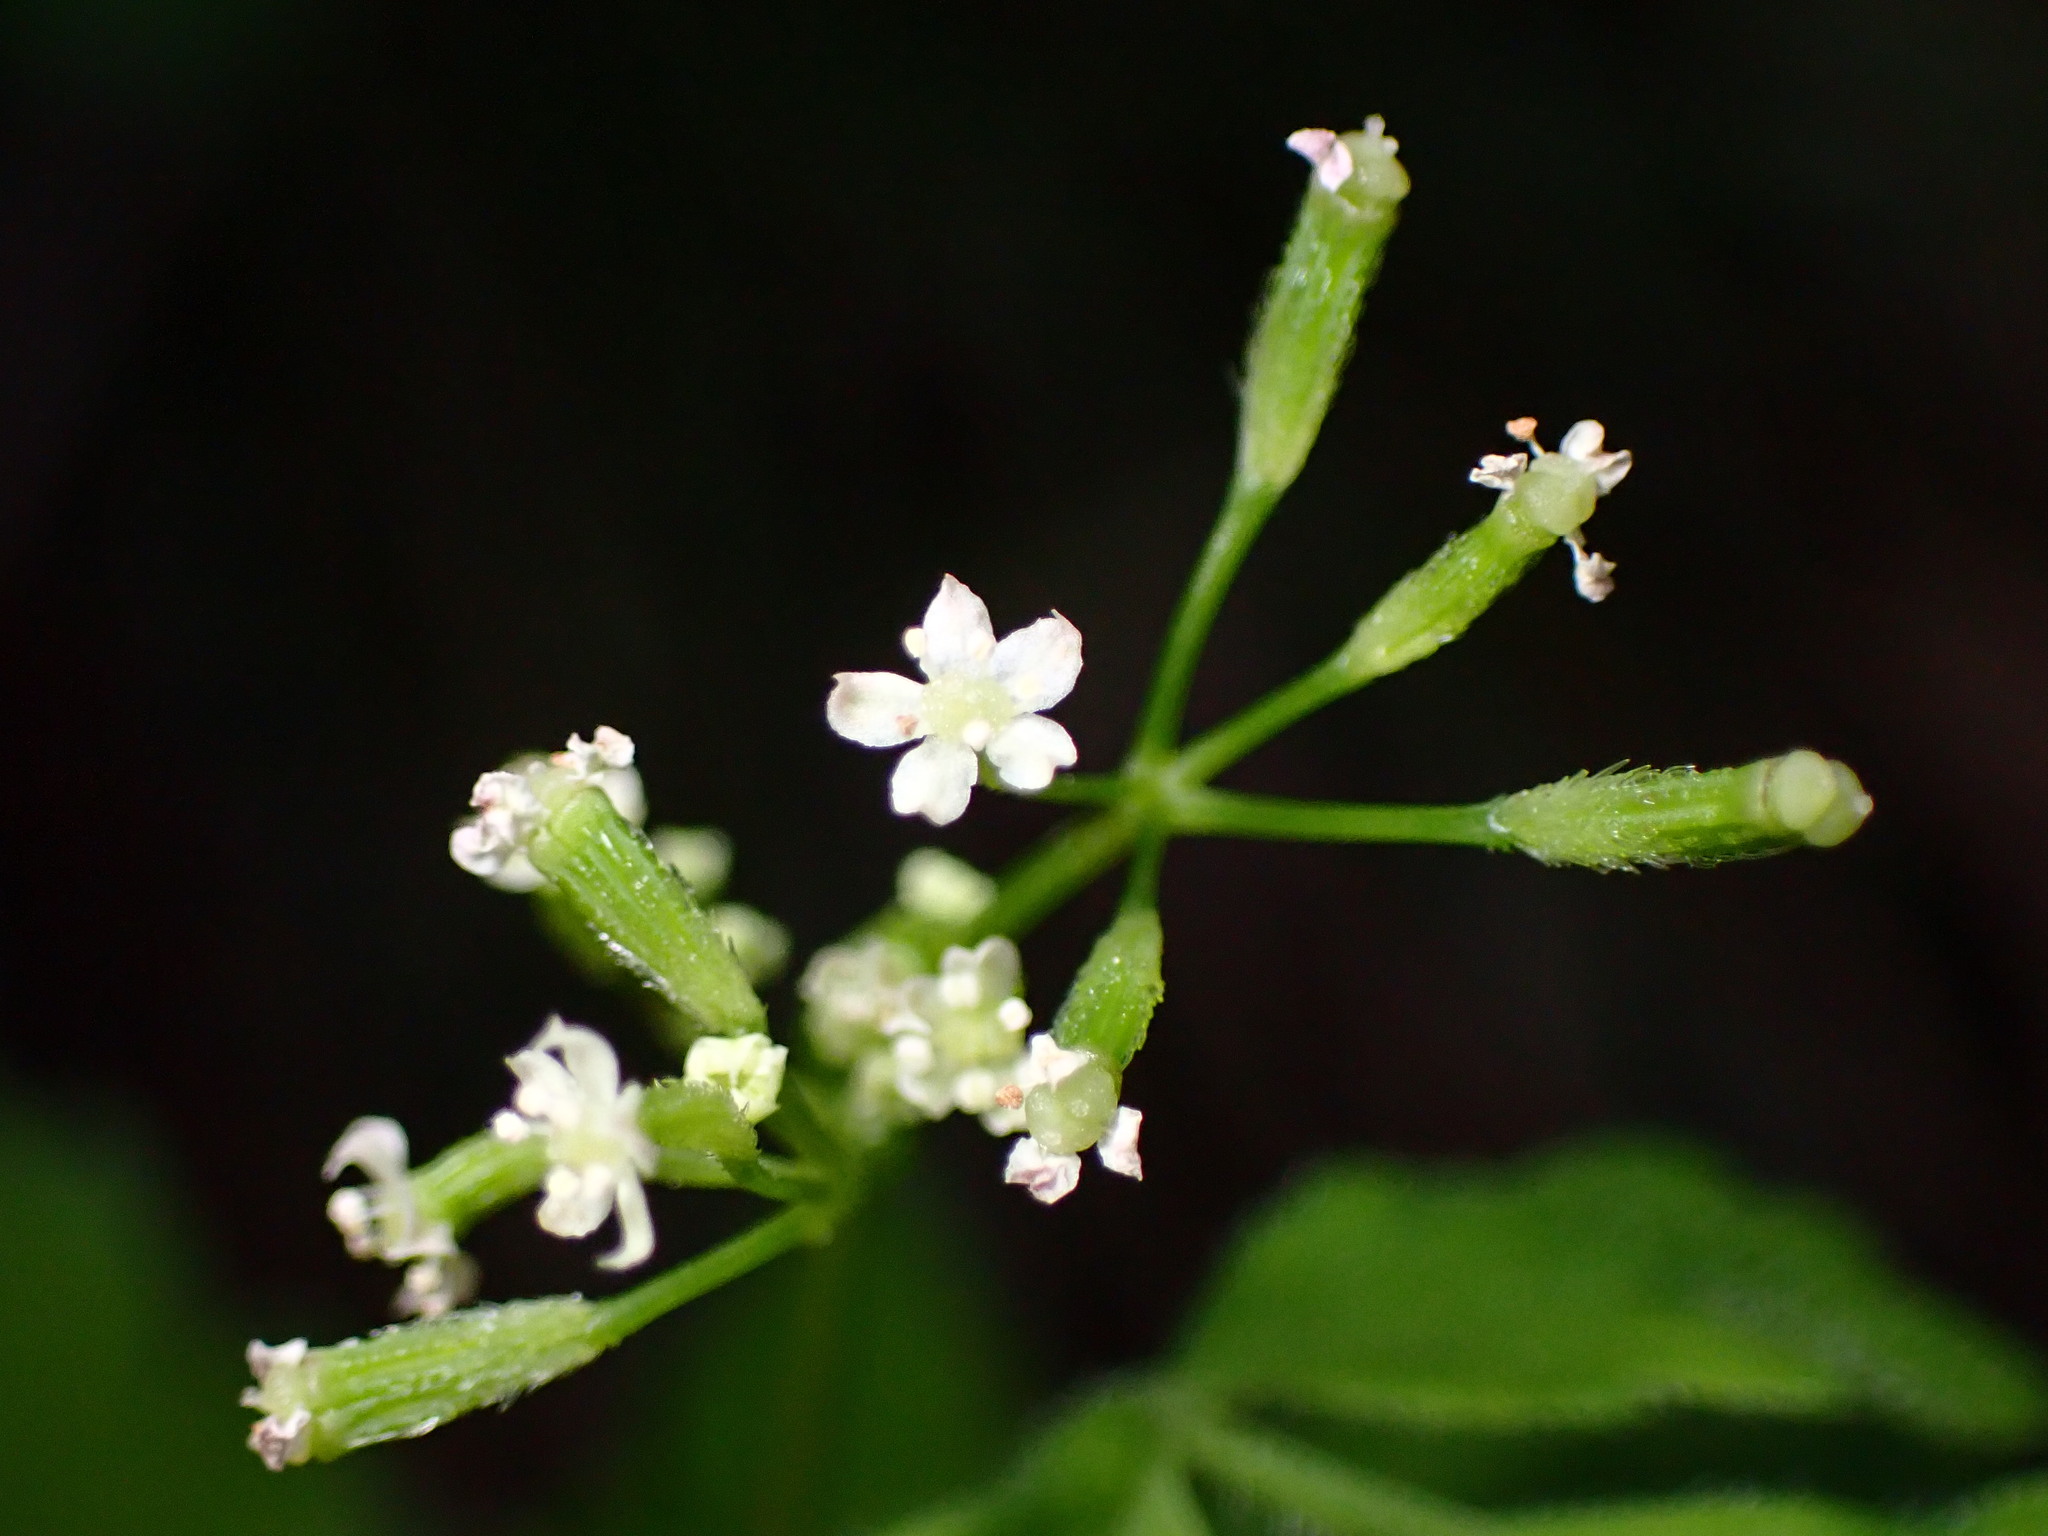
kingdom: Plantae
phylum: Tracheophyta
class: Magnoliopsida
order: Apiales
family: Apiaceae
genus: Osmorhiza
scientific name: Osmorhiza berteroi
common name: Mountain sweet cicely
